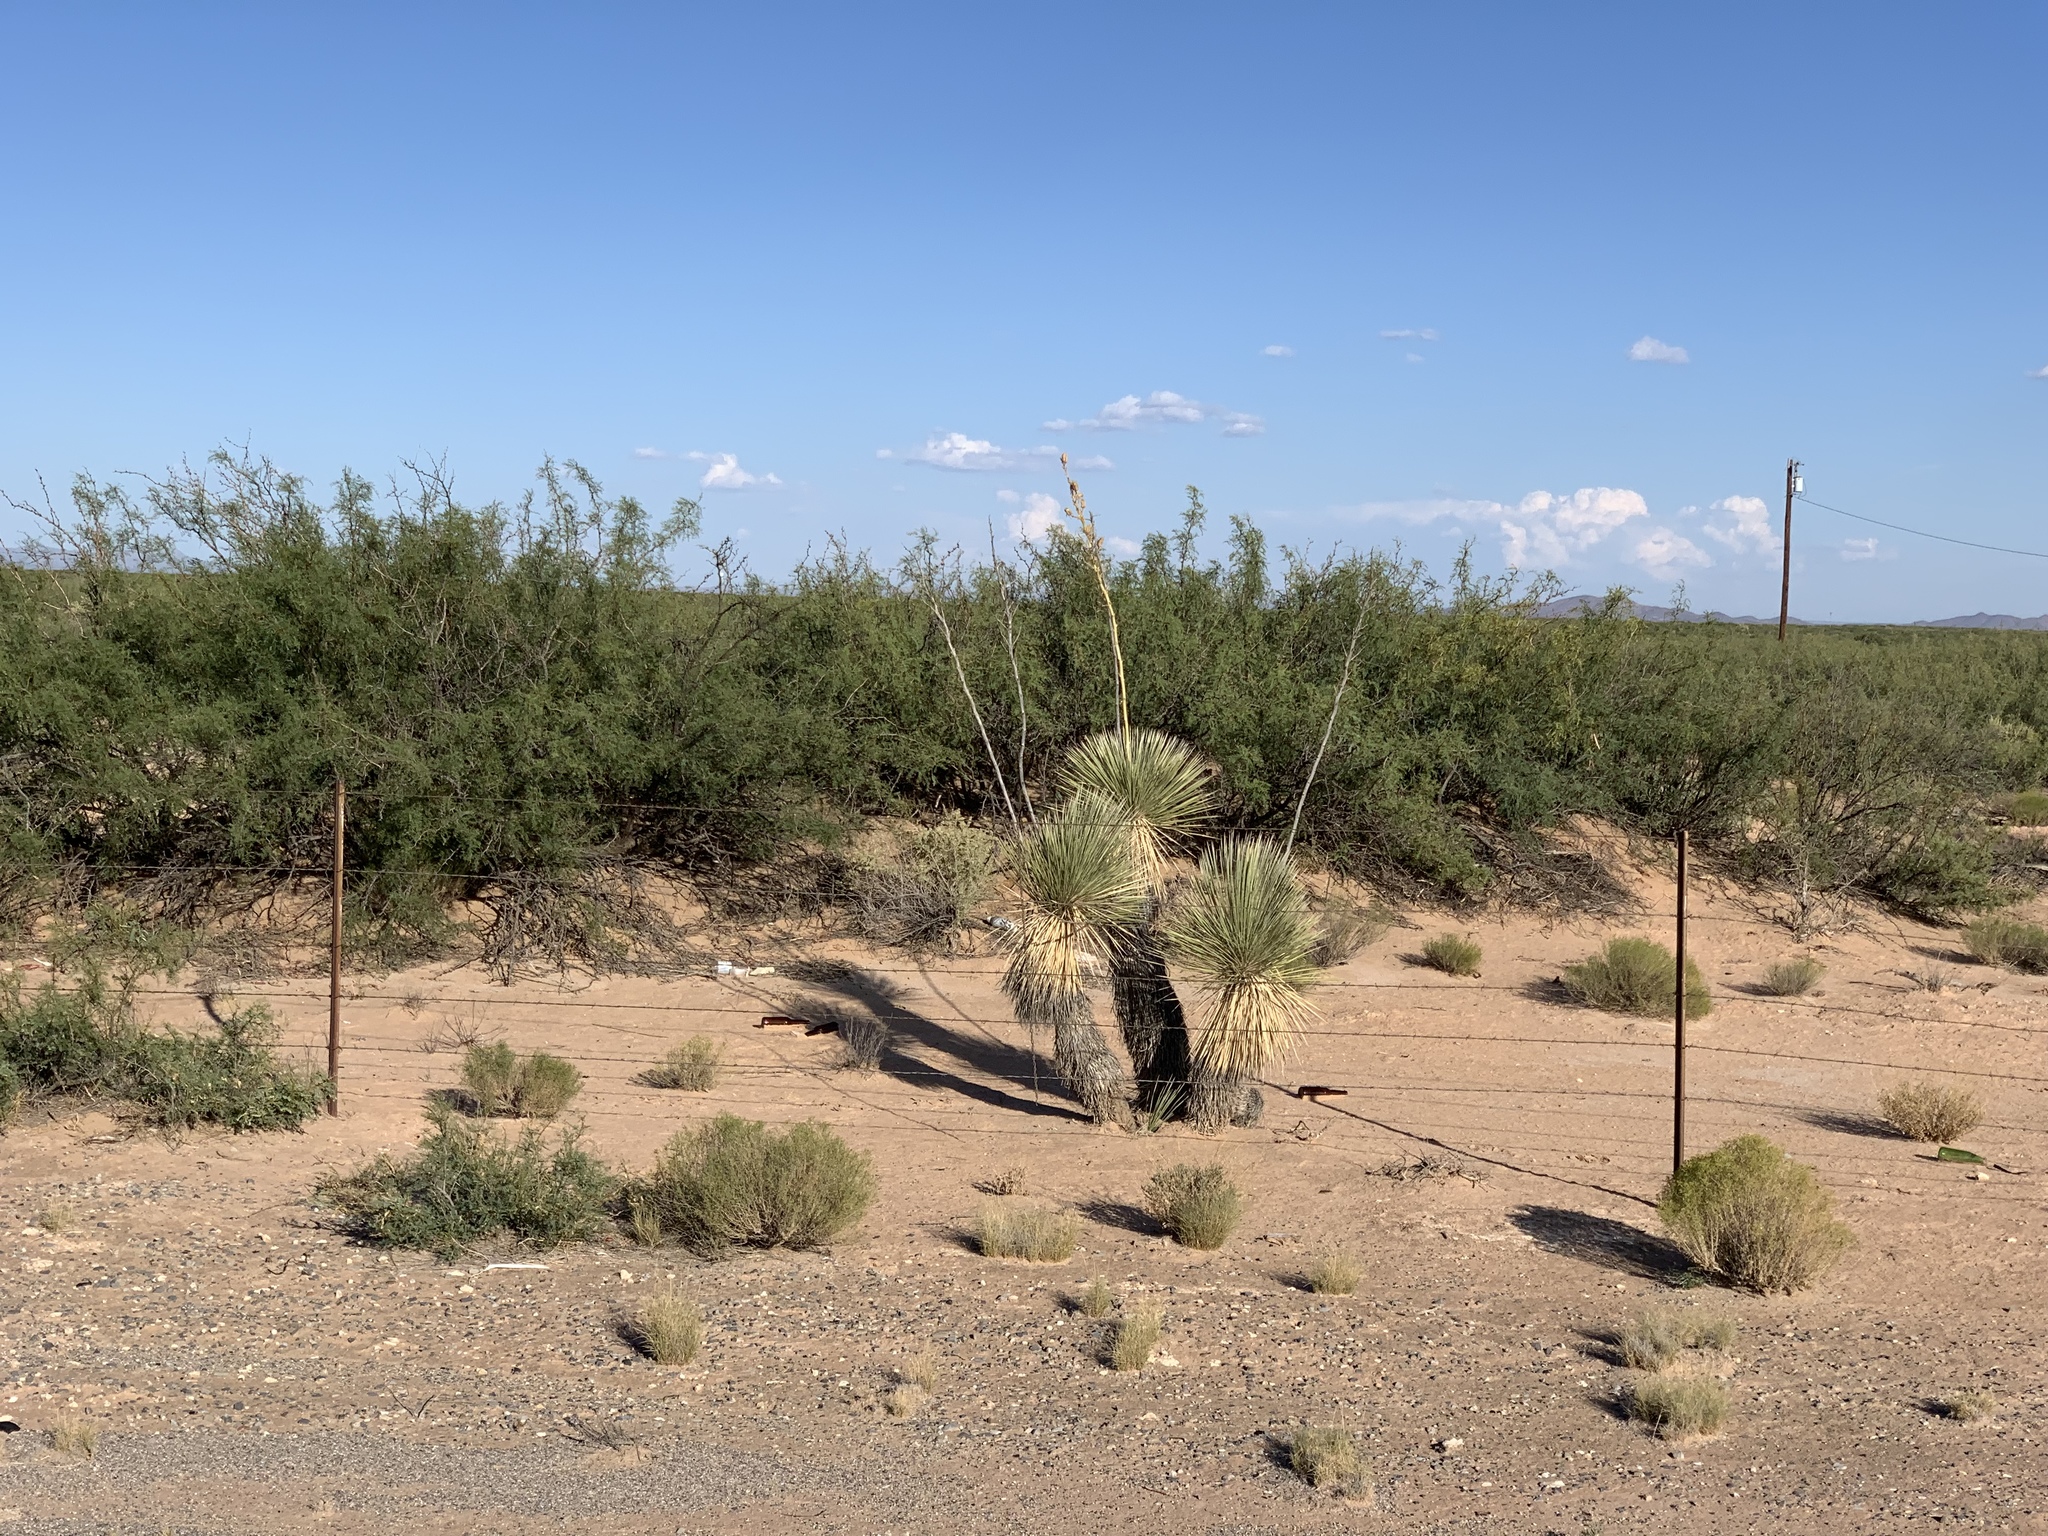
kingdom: Plantae
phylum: Tracheophyta
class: Liliopsida
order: Asparagales
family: Asparagaceae
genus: Yucca
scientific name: Yucca elata
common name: Palmella
